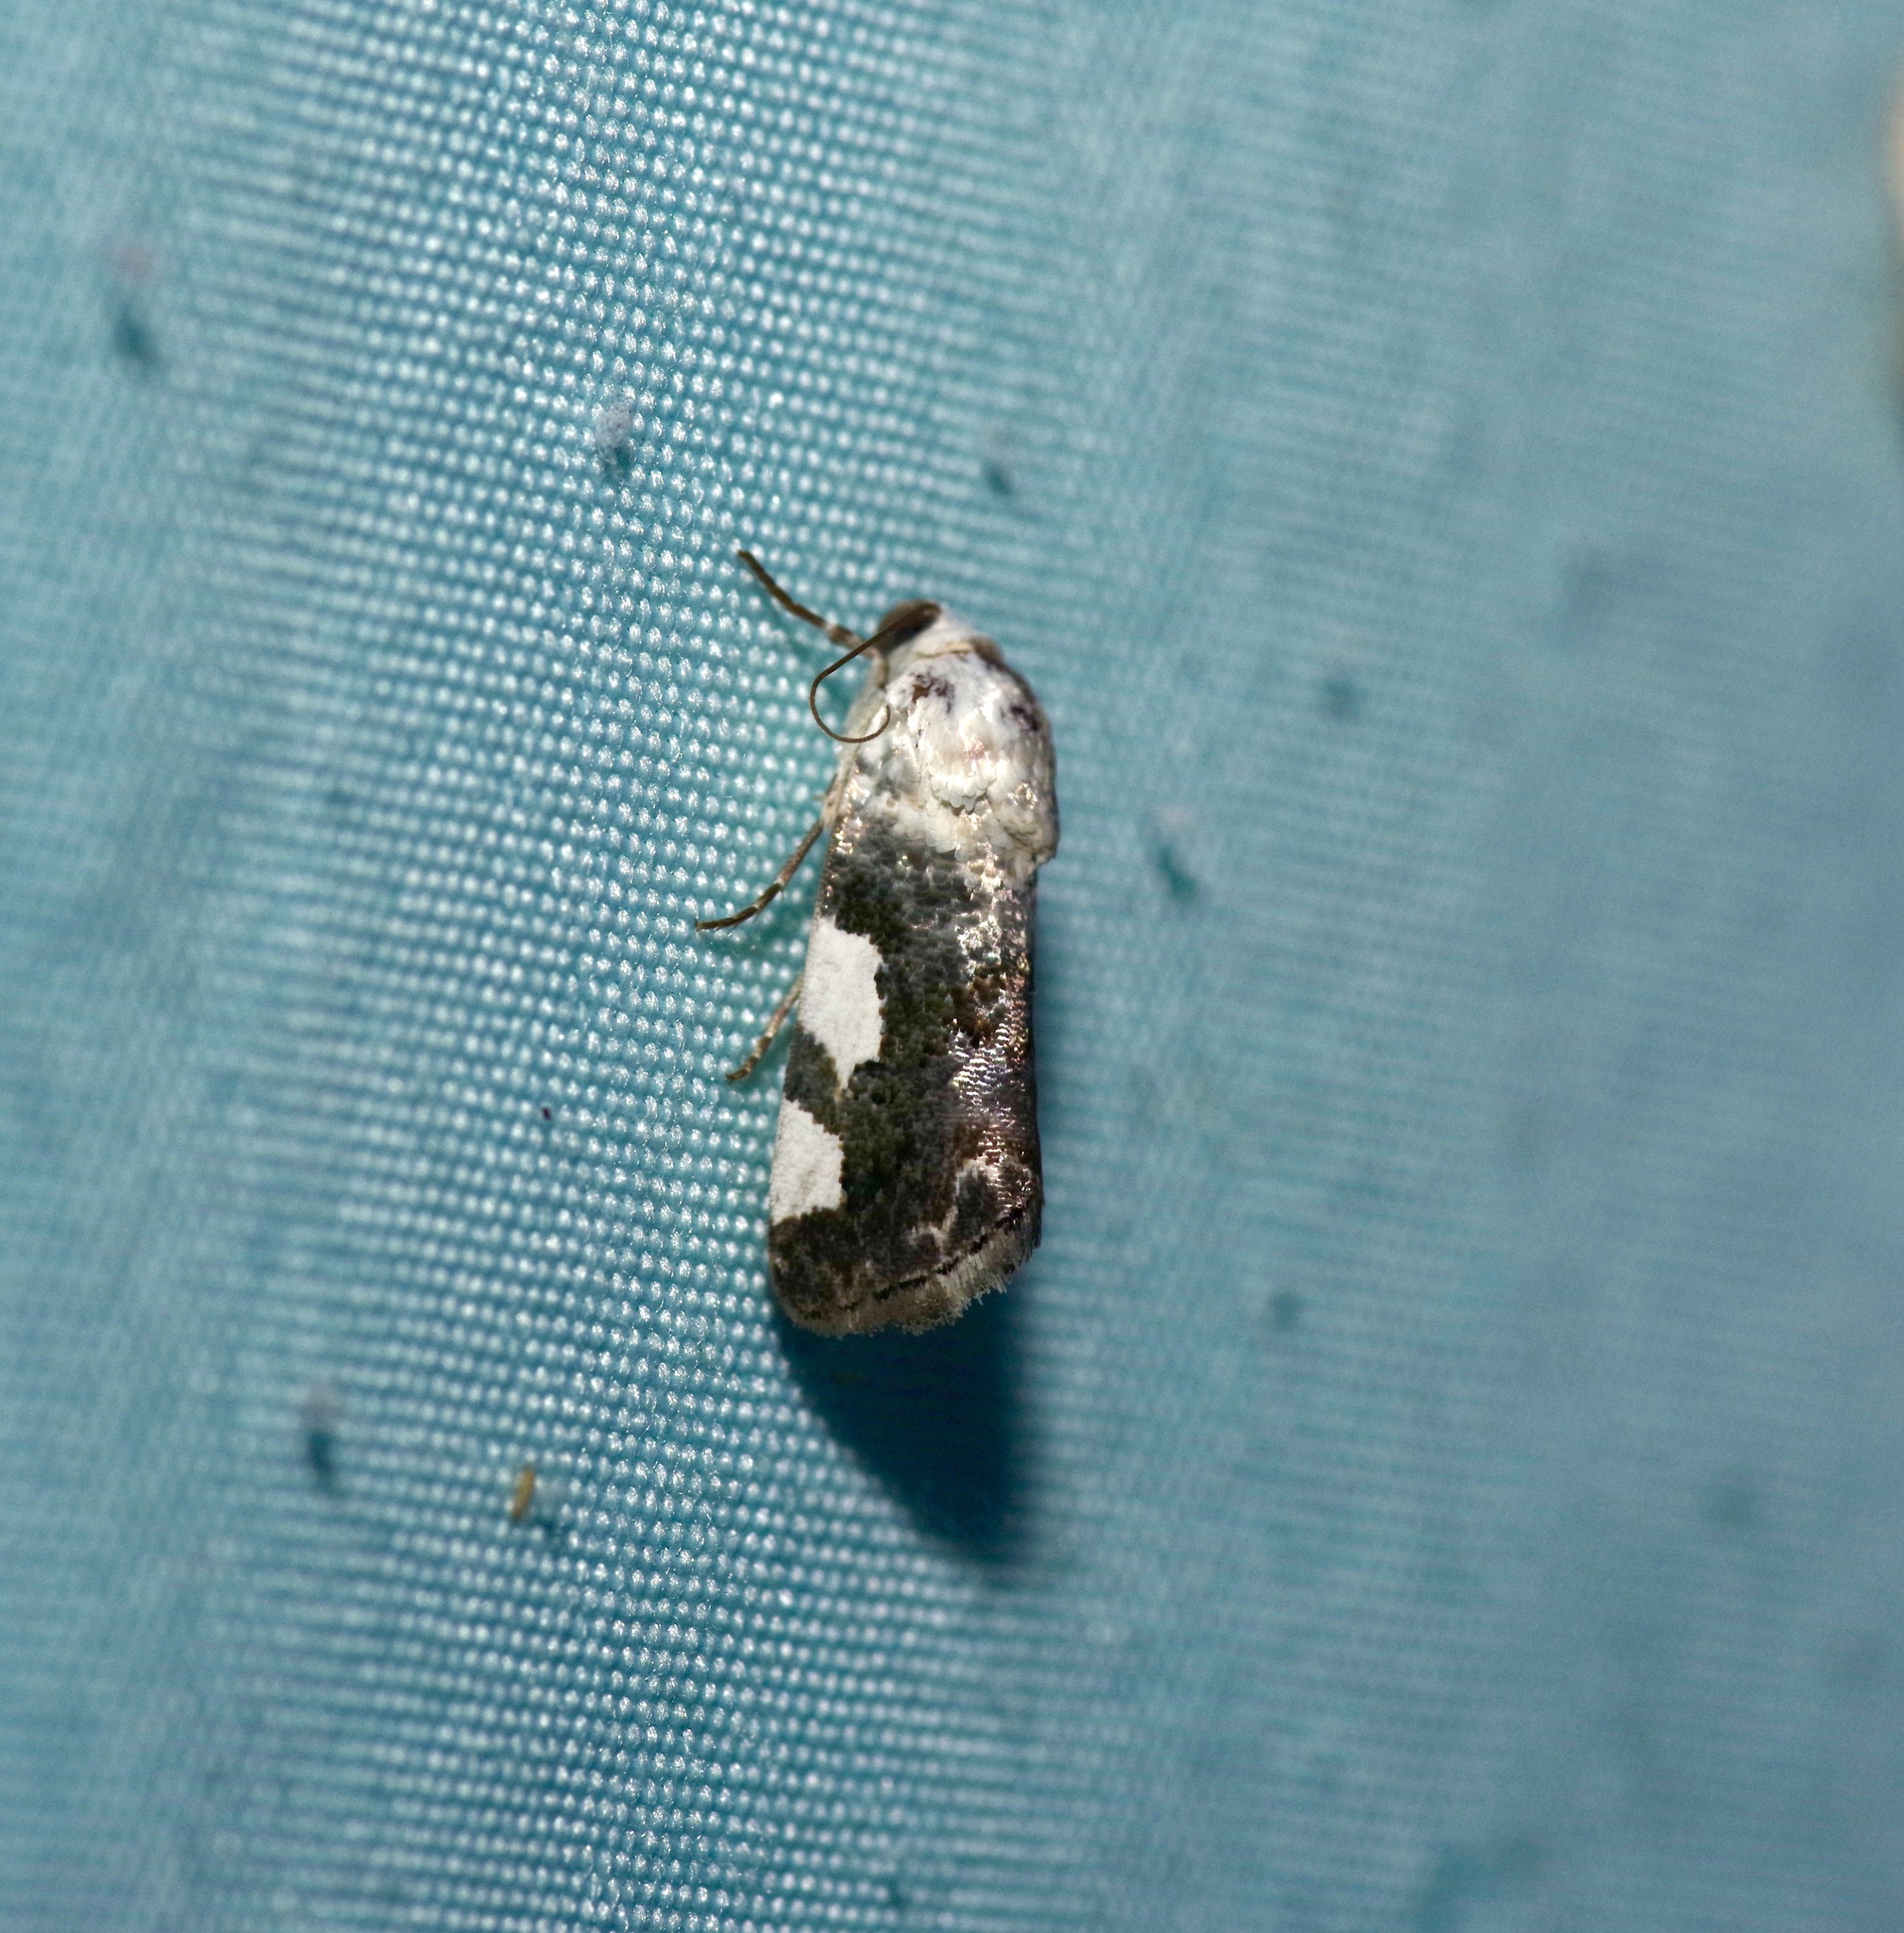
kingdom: Animalia
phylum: Arthropoda
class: Insecta
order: Lepidoptera
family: Noctuidae
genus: Acontia
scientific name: Acontia quadriplaga
